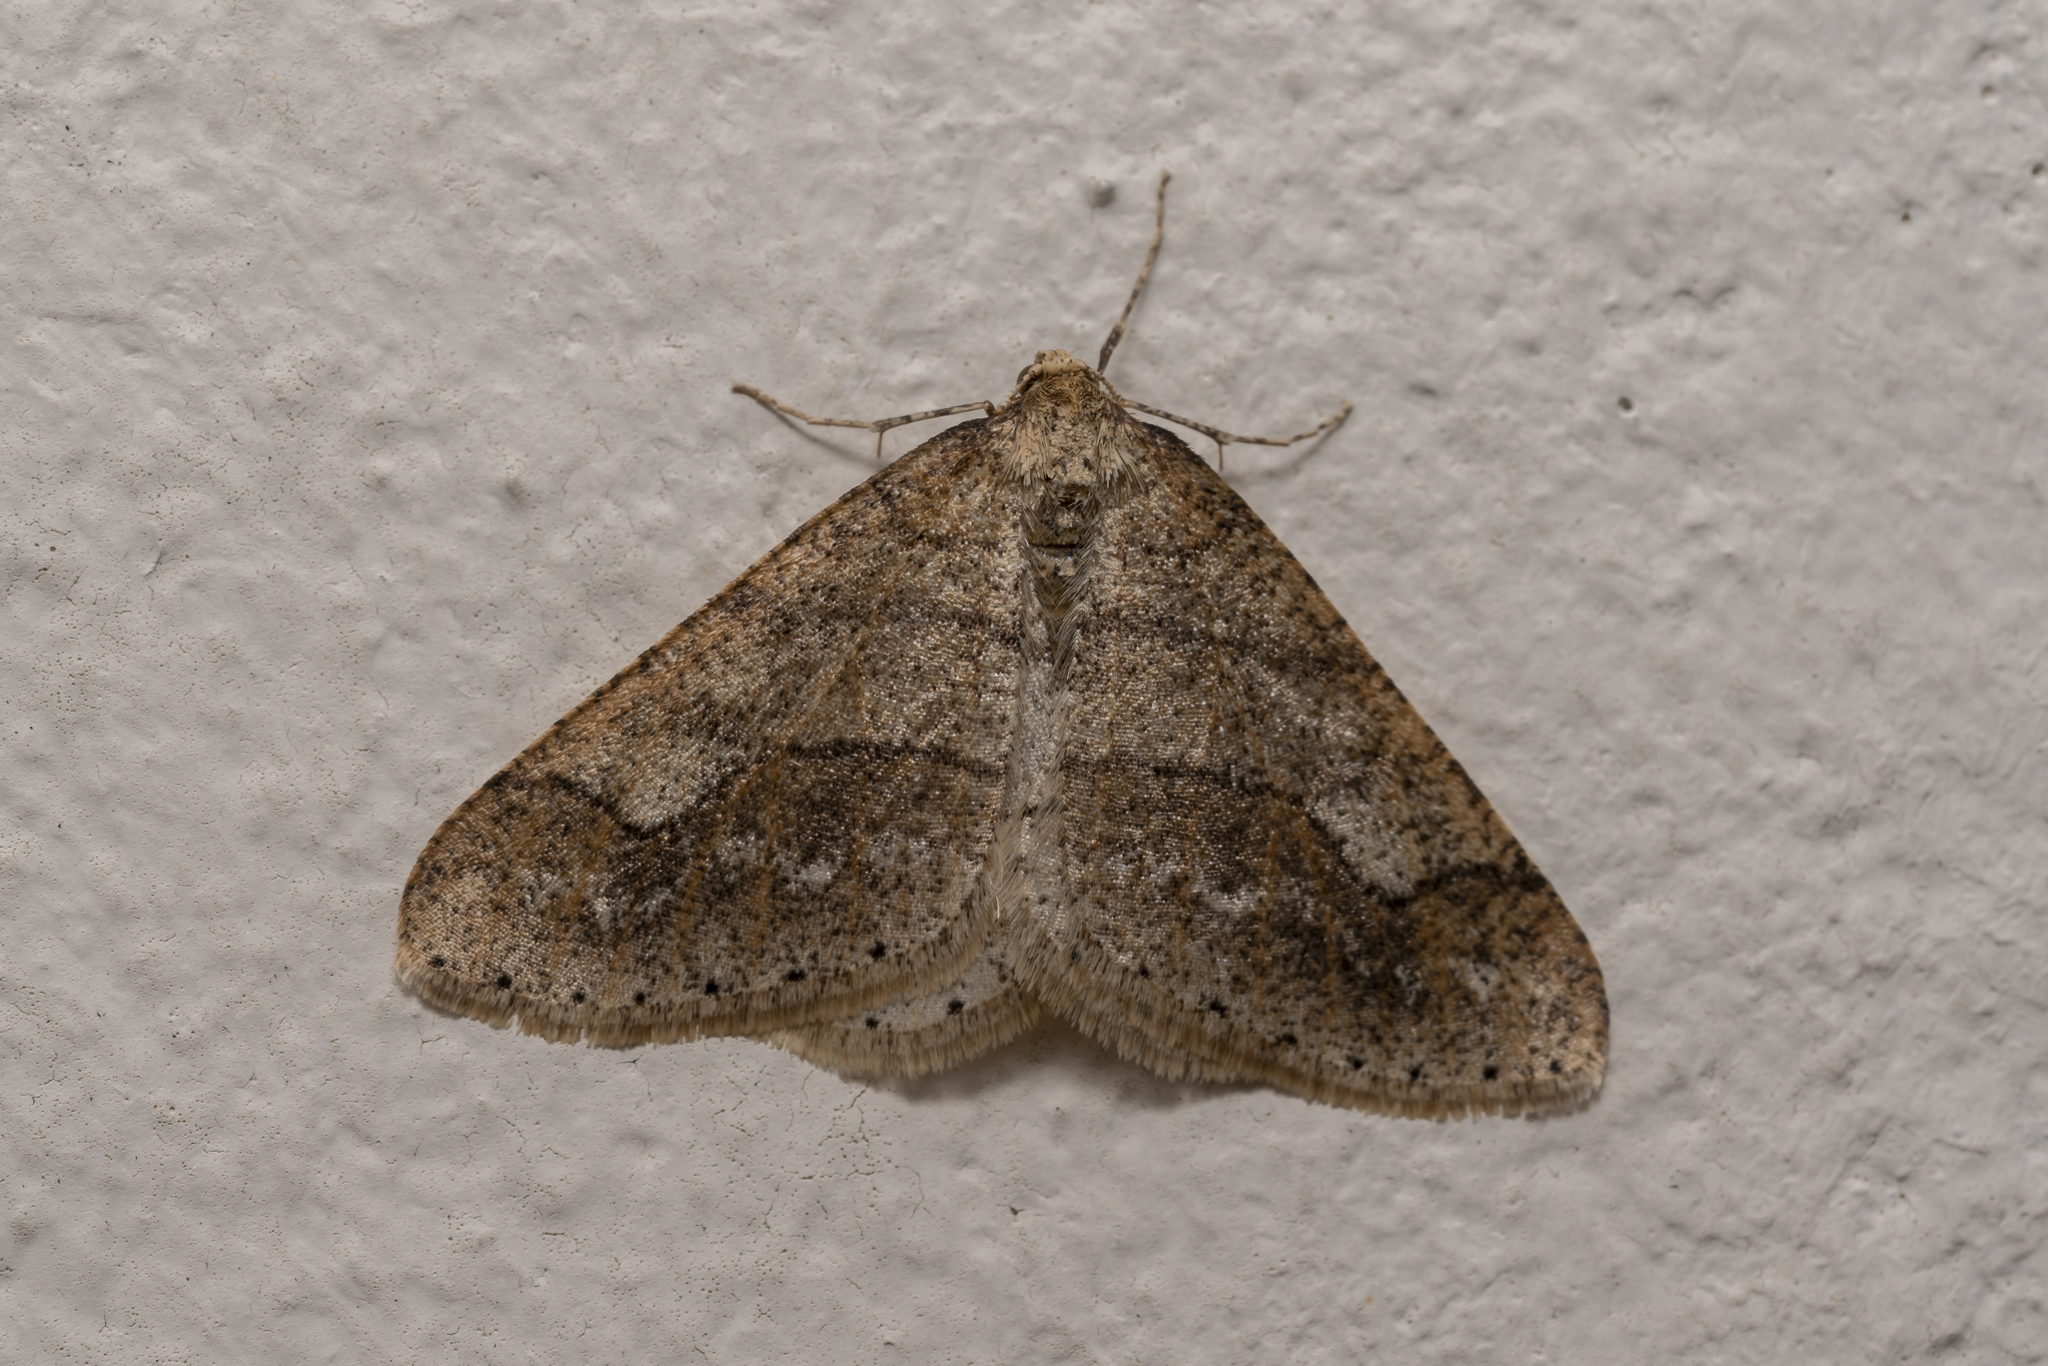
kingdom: Animalia
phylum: Arthropoda
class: Insecta
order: Lepidoptera
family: Geometridae
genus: Agriopis
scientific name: Agriopis marginaria
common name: Dotted border
